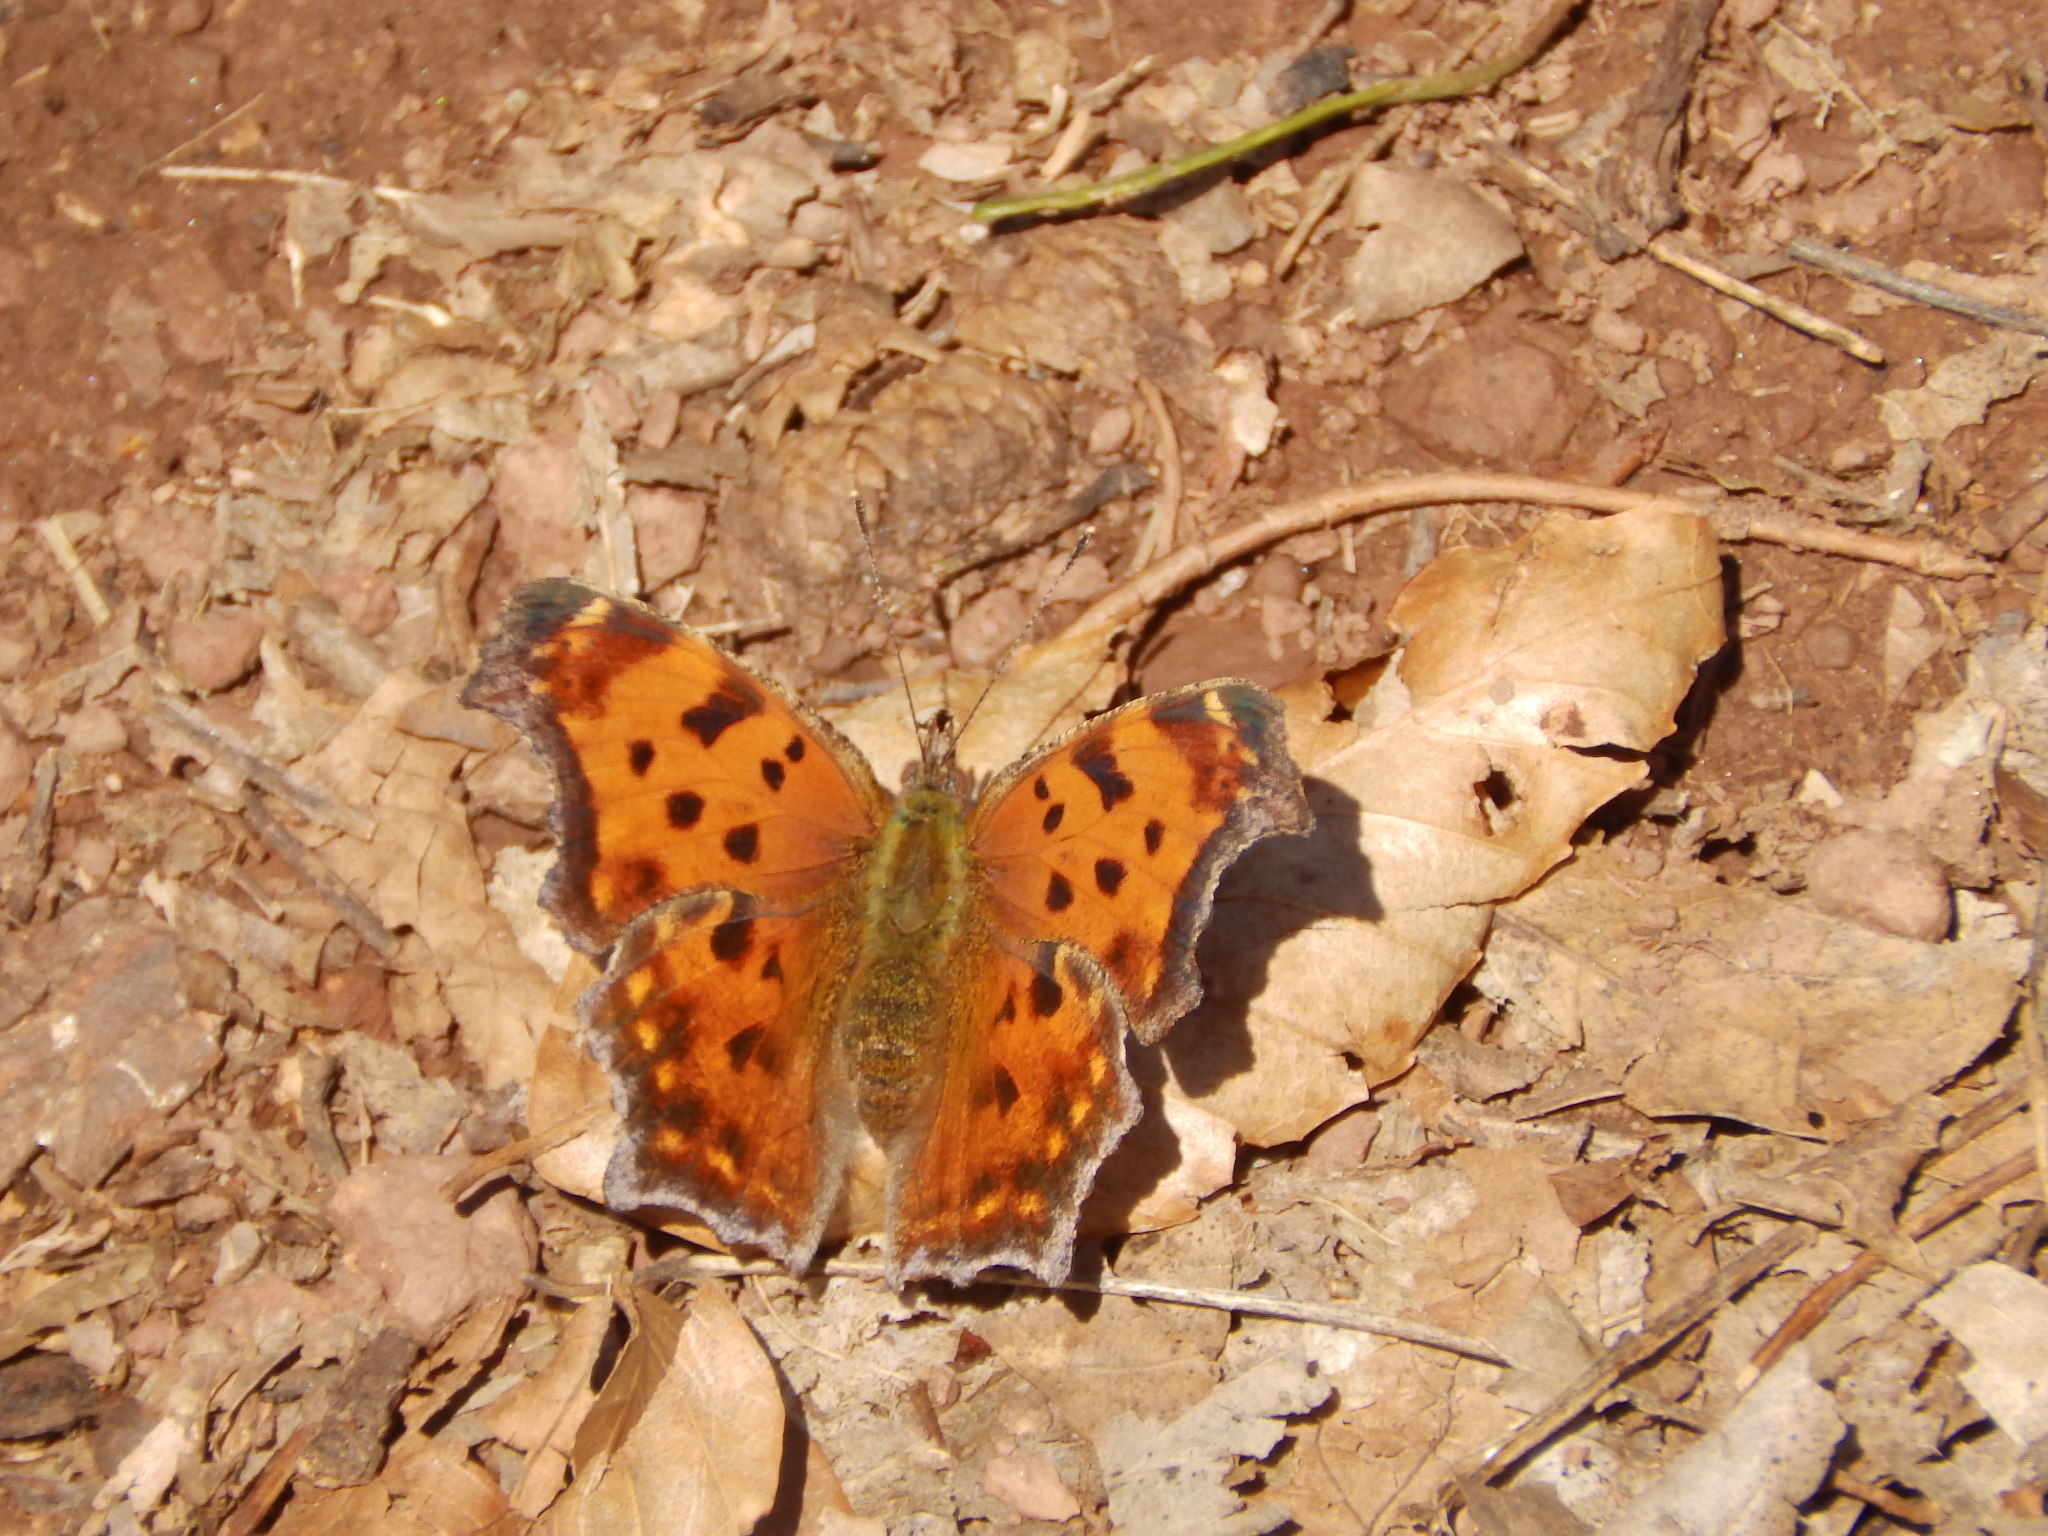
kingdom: Animalia
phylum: Arthropoda
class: Insecta
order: Lepidoptera
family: Nymphalidae
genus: Polygonia
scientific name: Polygonia comma
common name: Eastern comma
